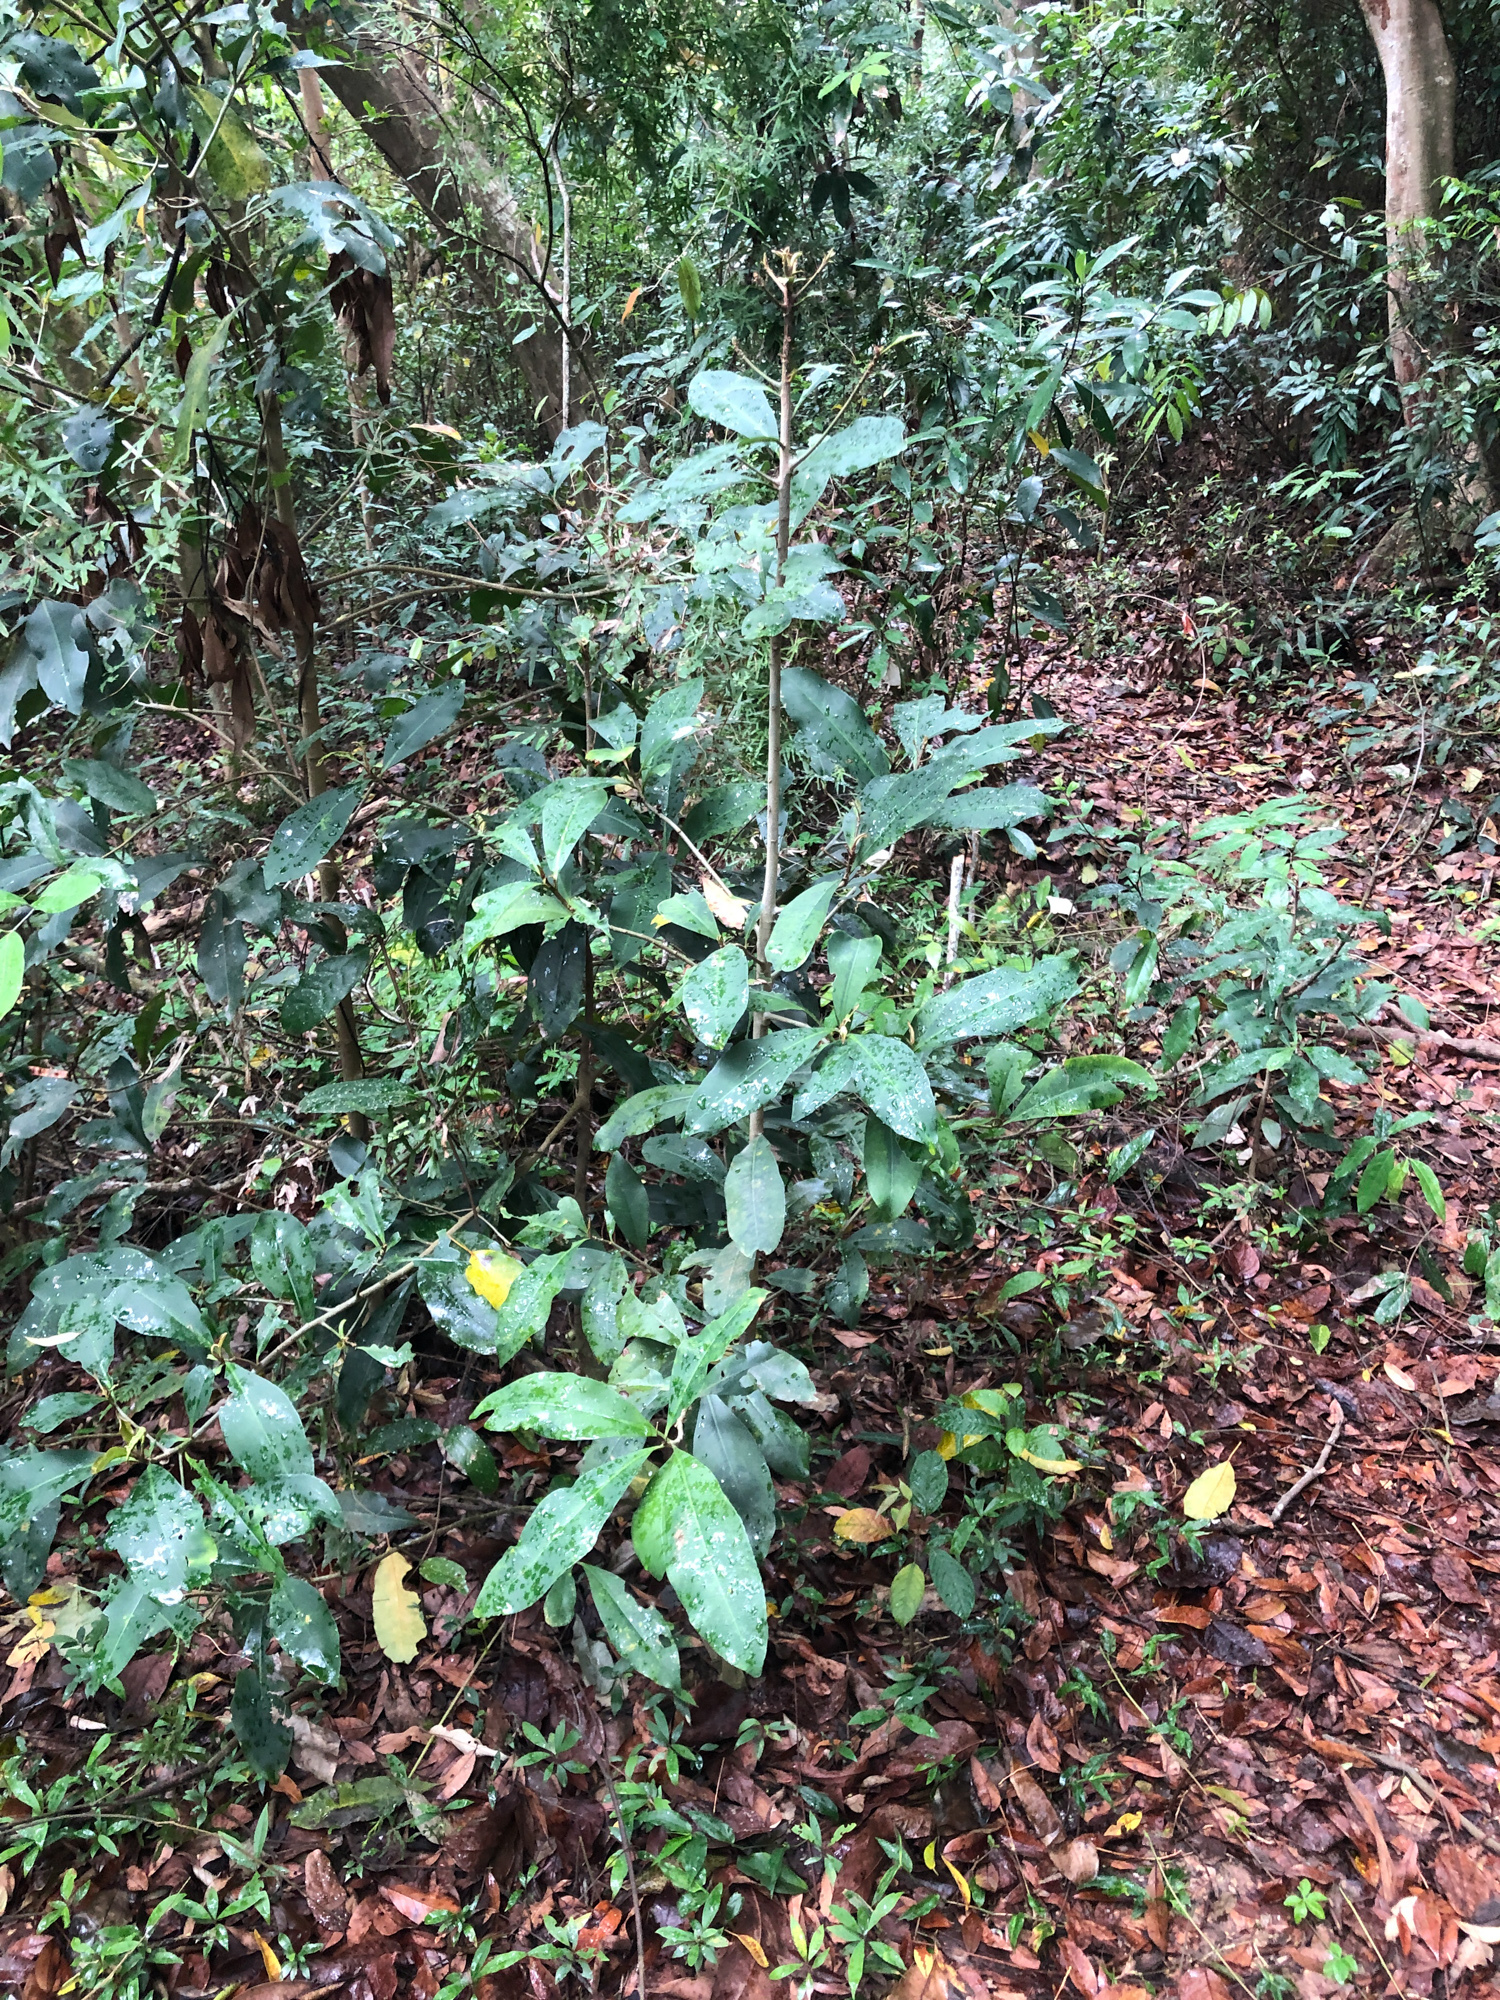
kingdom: Plantae
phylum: Tracheophyta
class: Magnoliopsida
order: Ericales
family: Primulaceae
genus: Ardisia
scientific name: Ardisia sieboldii
